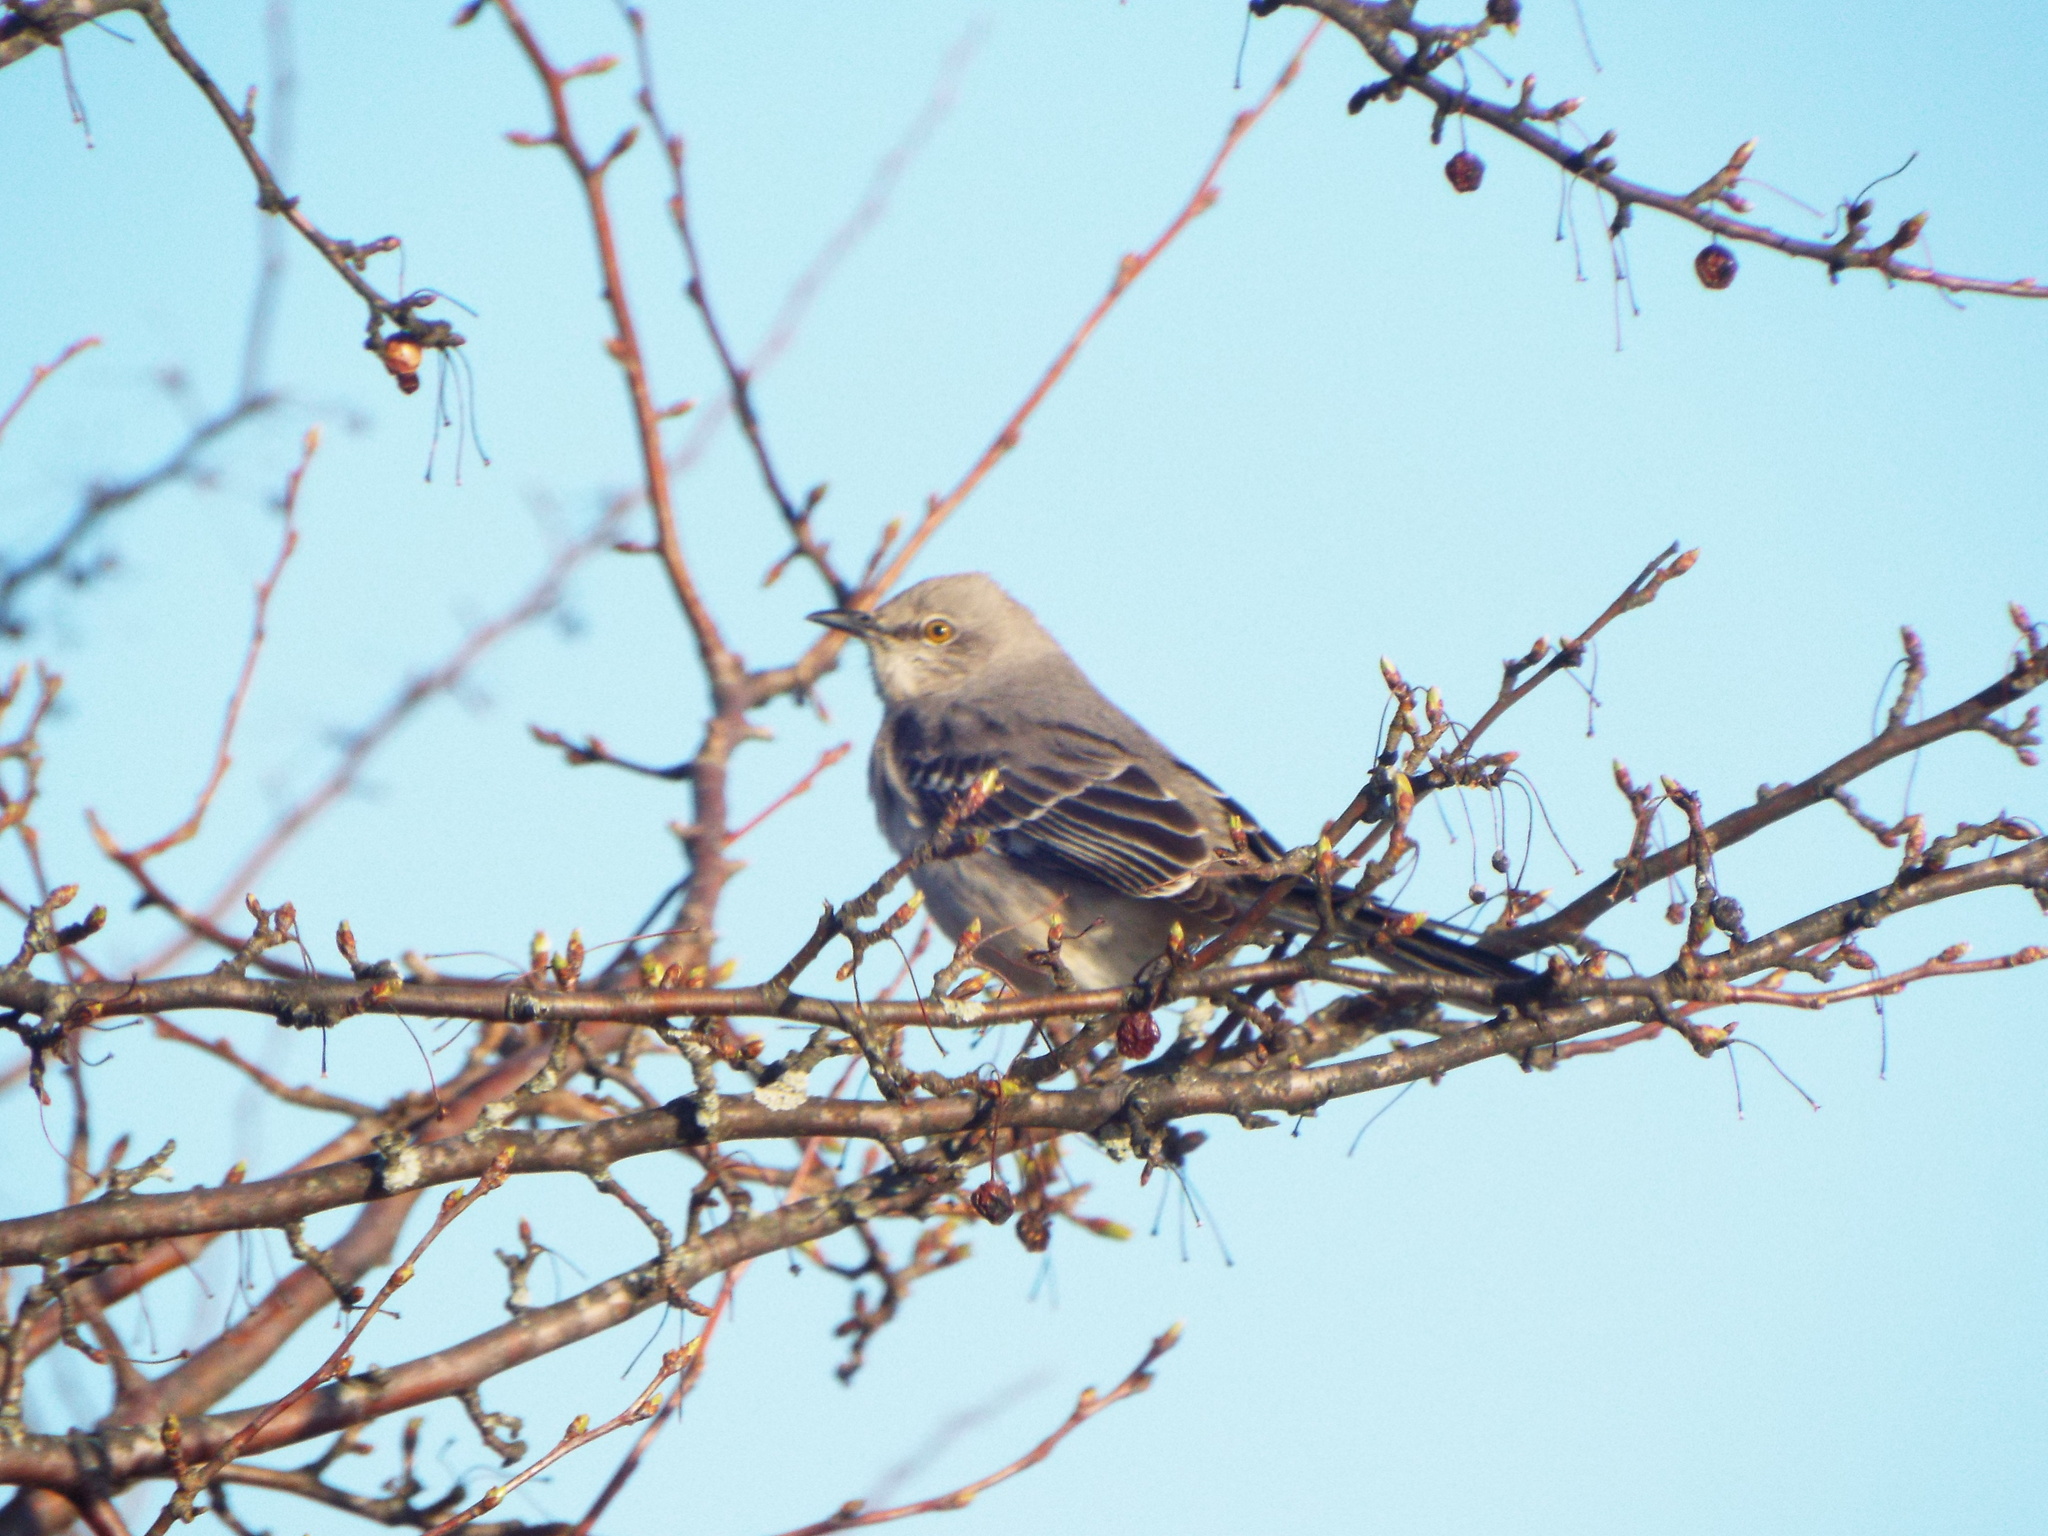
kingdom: Animalia
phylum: Chordata
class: Aves
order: Passeriformes
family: Mimidae
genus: Mimus
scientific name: Mimus polyglottos
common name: Northern mockingbird
